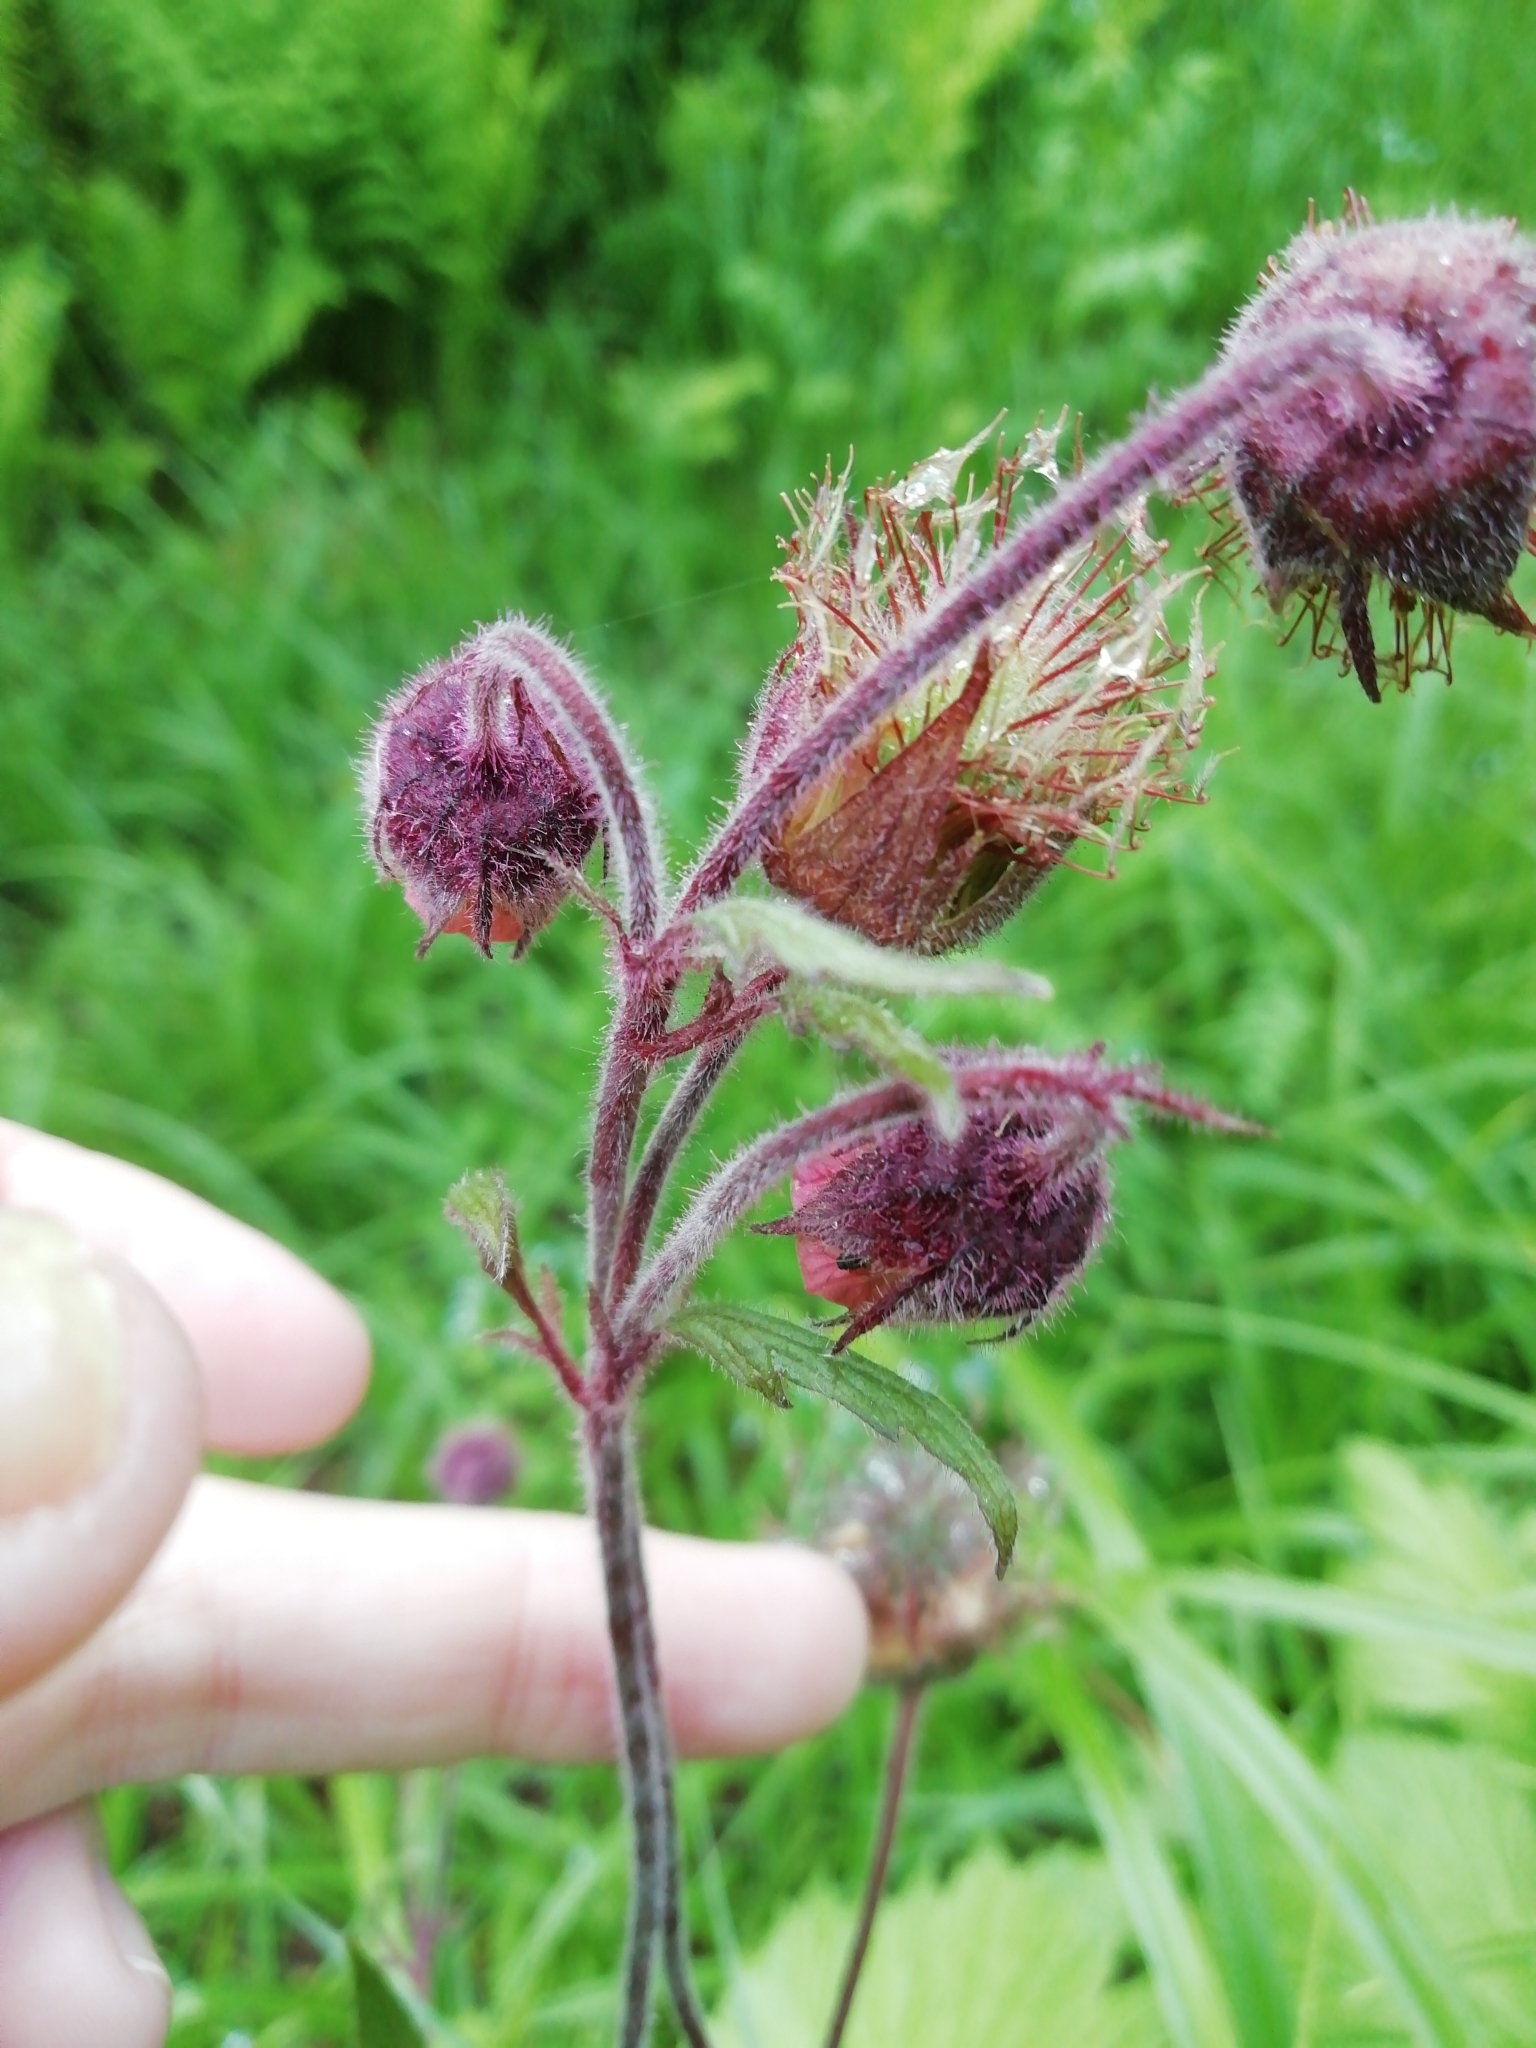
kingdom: Plantae
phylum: Tracheophyta
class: Magnoliopsida
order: Rosales
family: Rosaceae
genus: Geum
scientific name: Geum rivale
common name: Water avens
